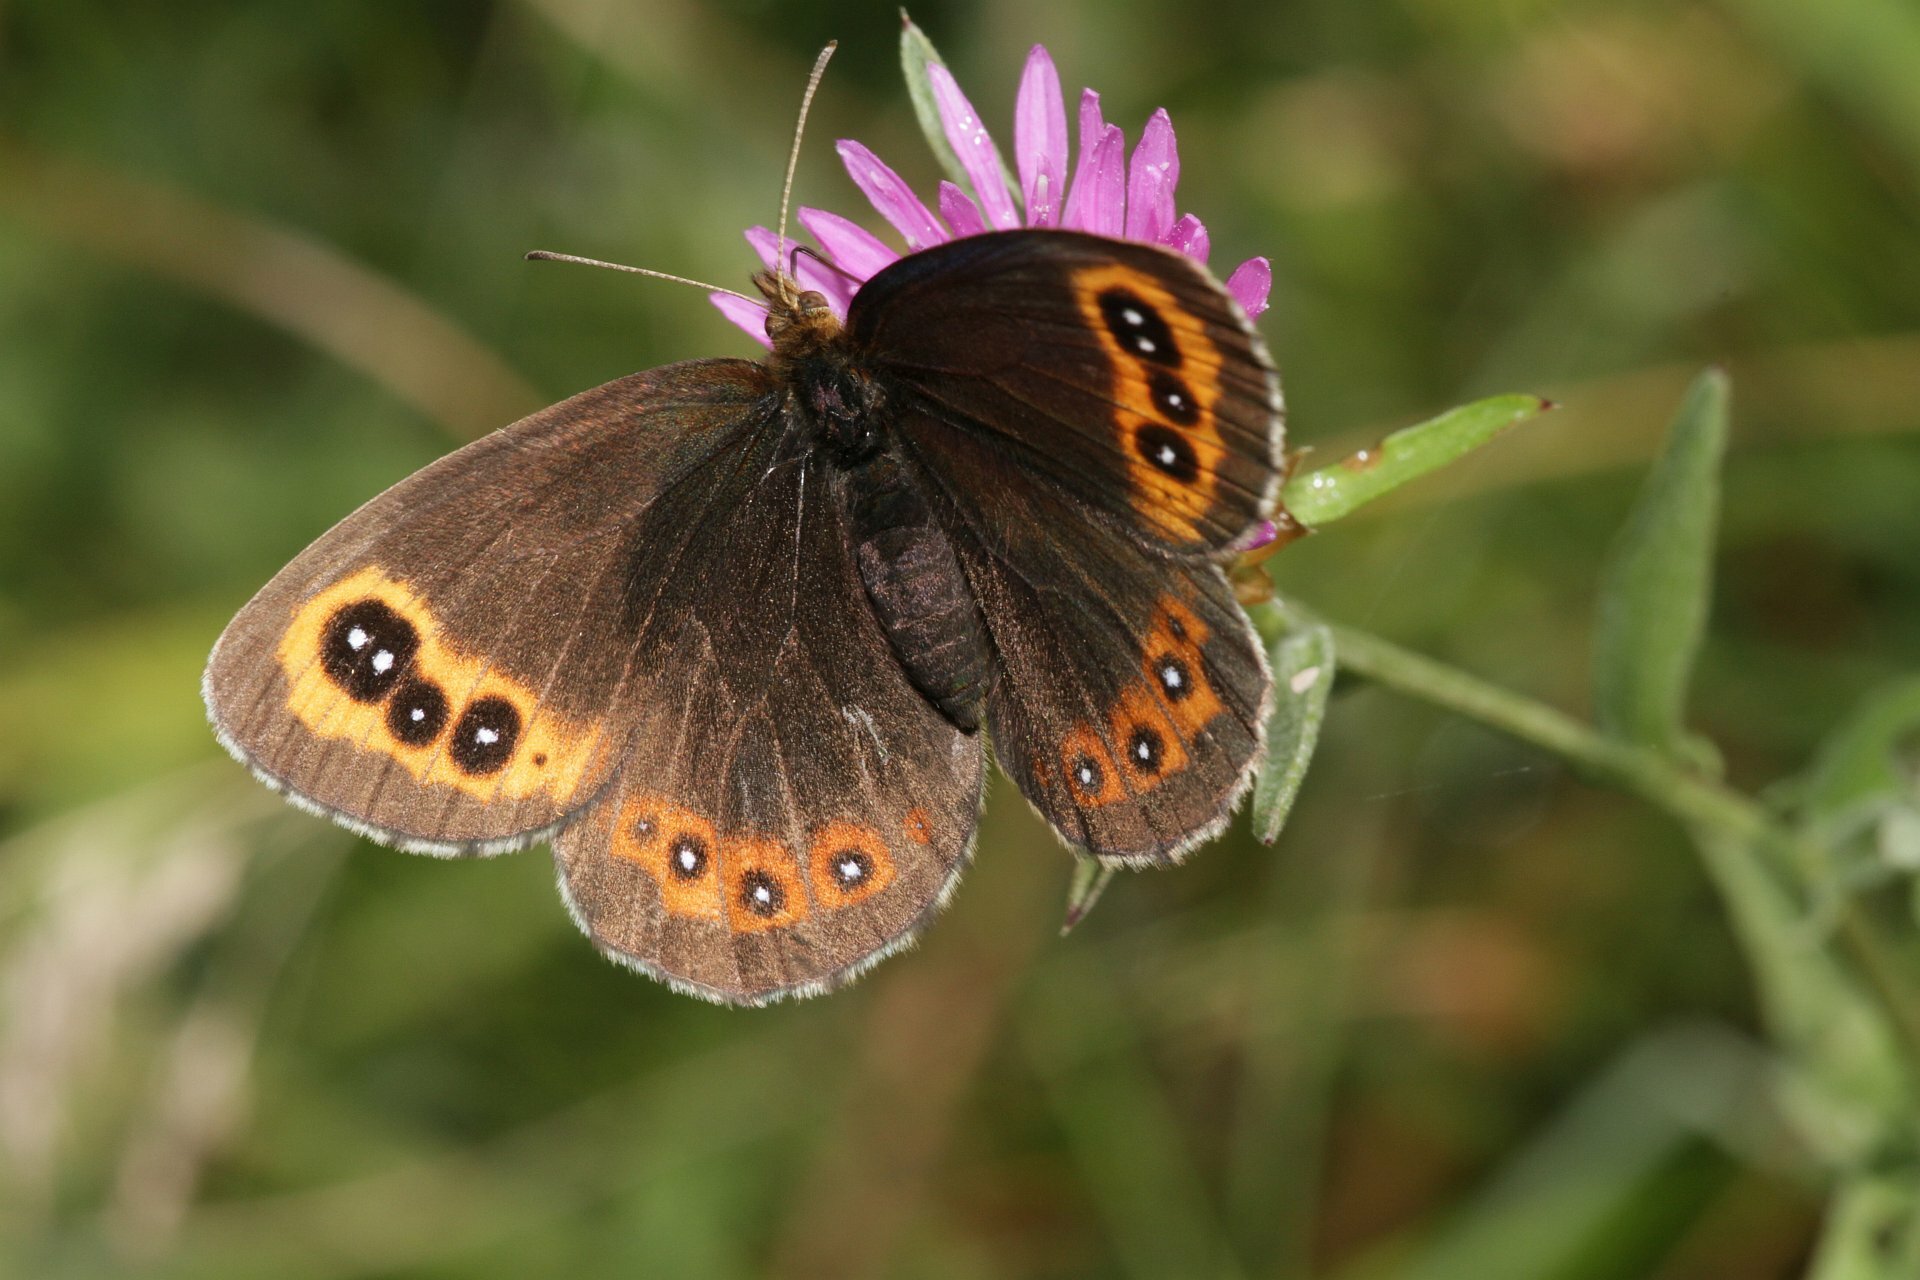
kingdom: Animalia
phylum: Arthropoda
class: Insecta
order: Lepidoptera
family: Nymphalidae
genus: Erebia
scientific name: Erebia aethiops
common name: Scotch argus
